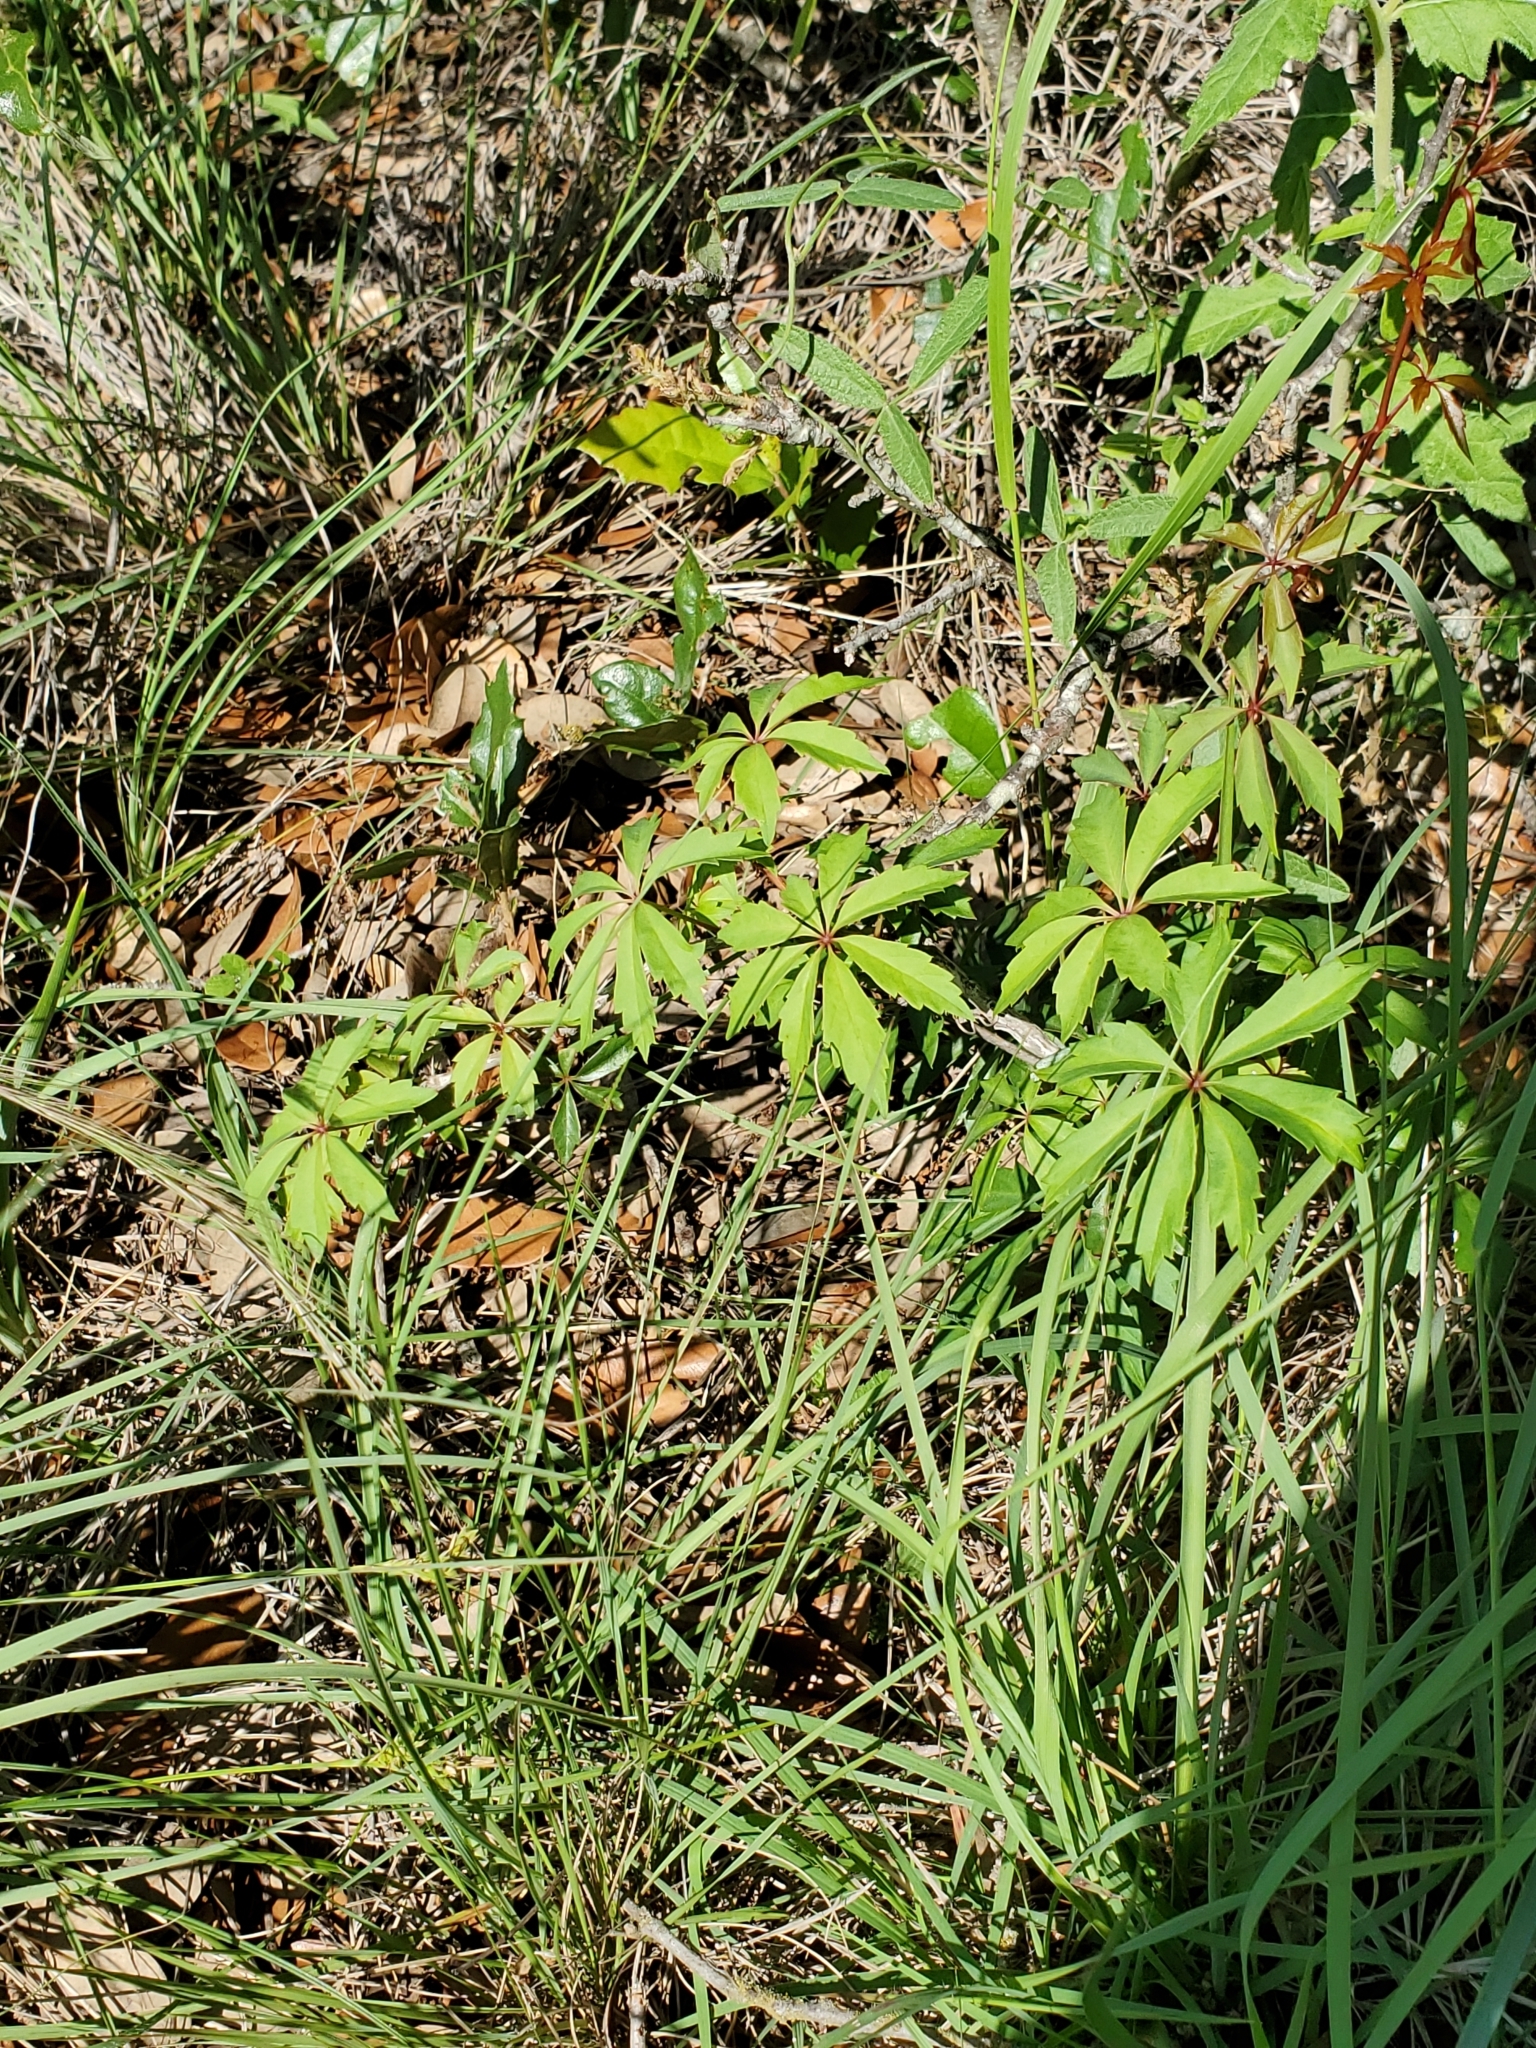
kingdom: Plantae
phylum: Tracheophyta
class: Magnoliopsida
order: Vitales
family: Vitaceae
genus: Parthenocissus
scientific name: Parthenocissus heptaphylla
